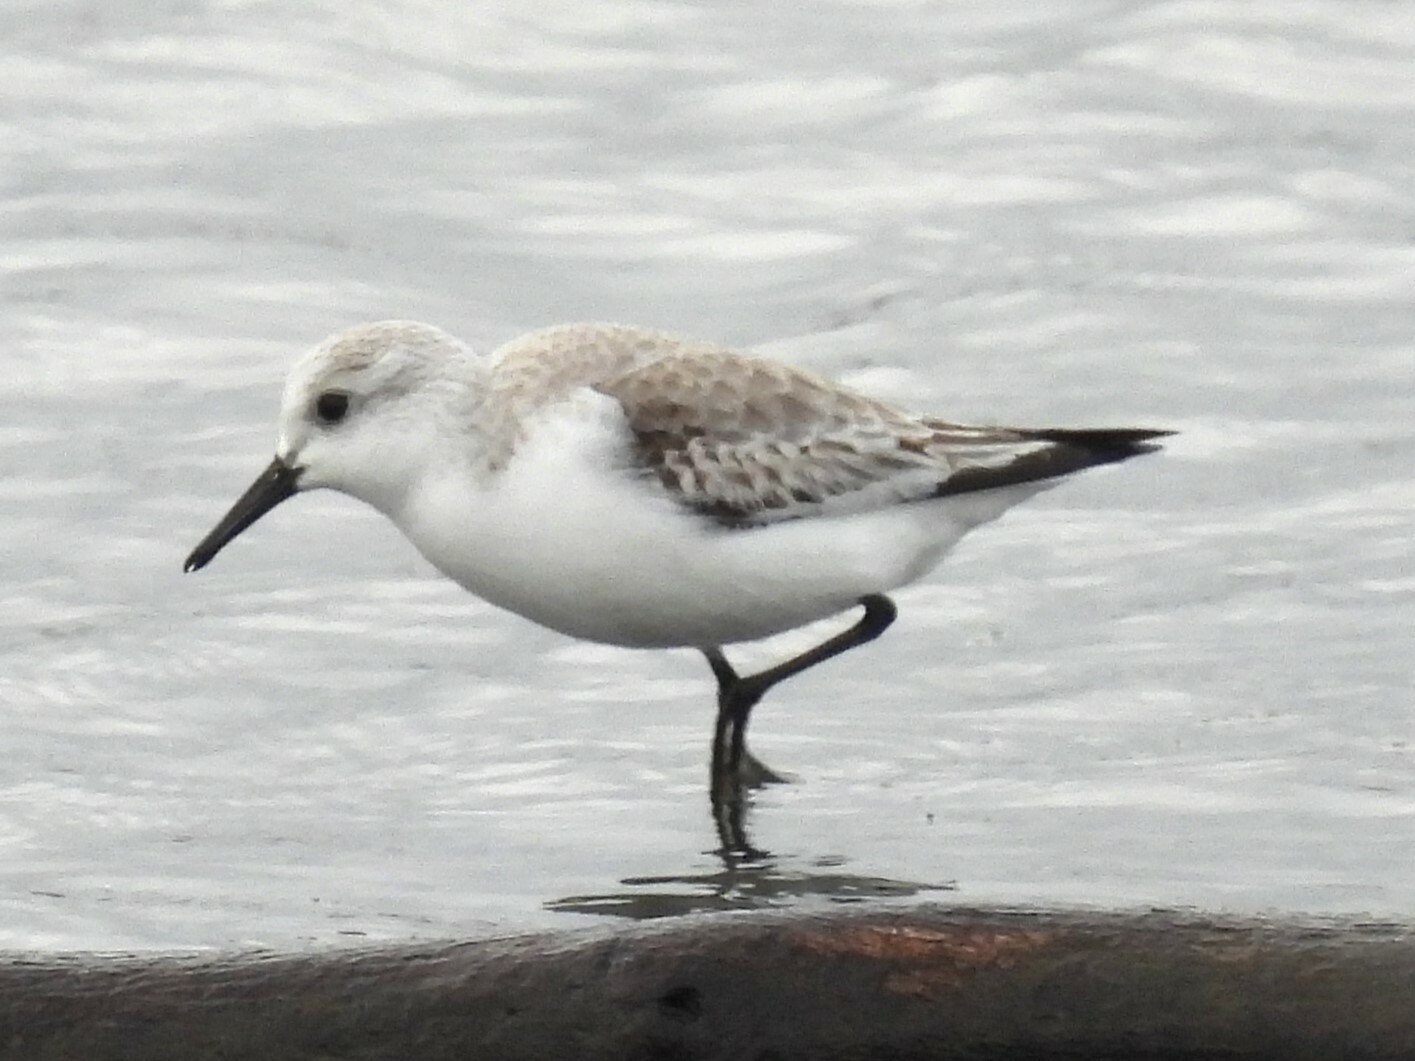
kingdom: Animalia
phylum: Chordata
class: Aves
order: Charadriiformes
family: Scolopacidae
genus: Calidris
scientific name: Calidris alba
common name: Sanderling
